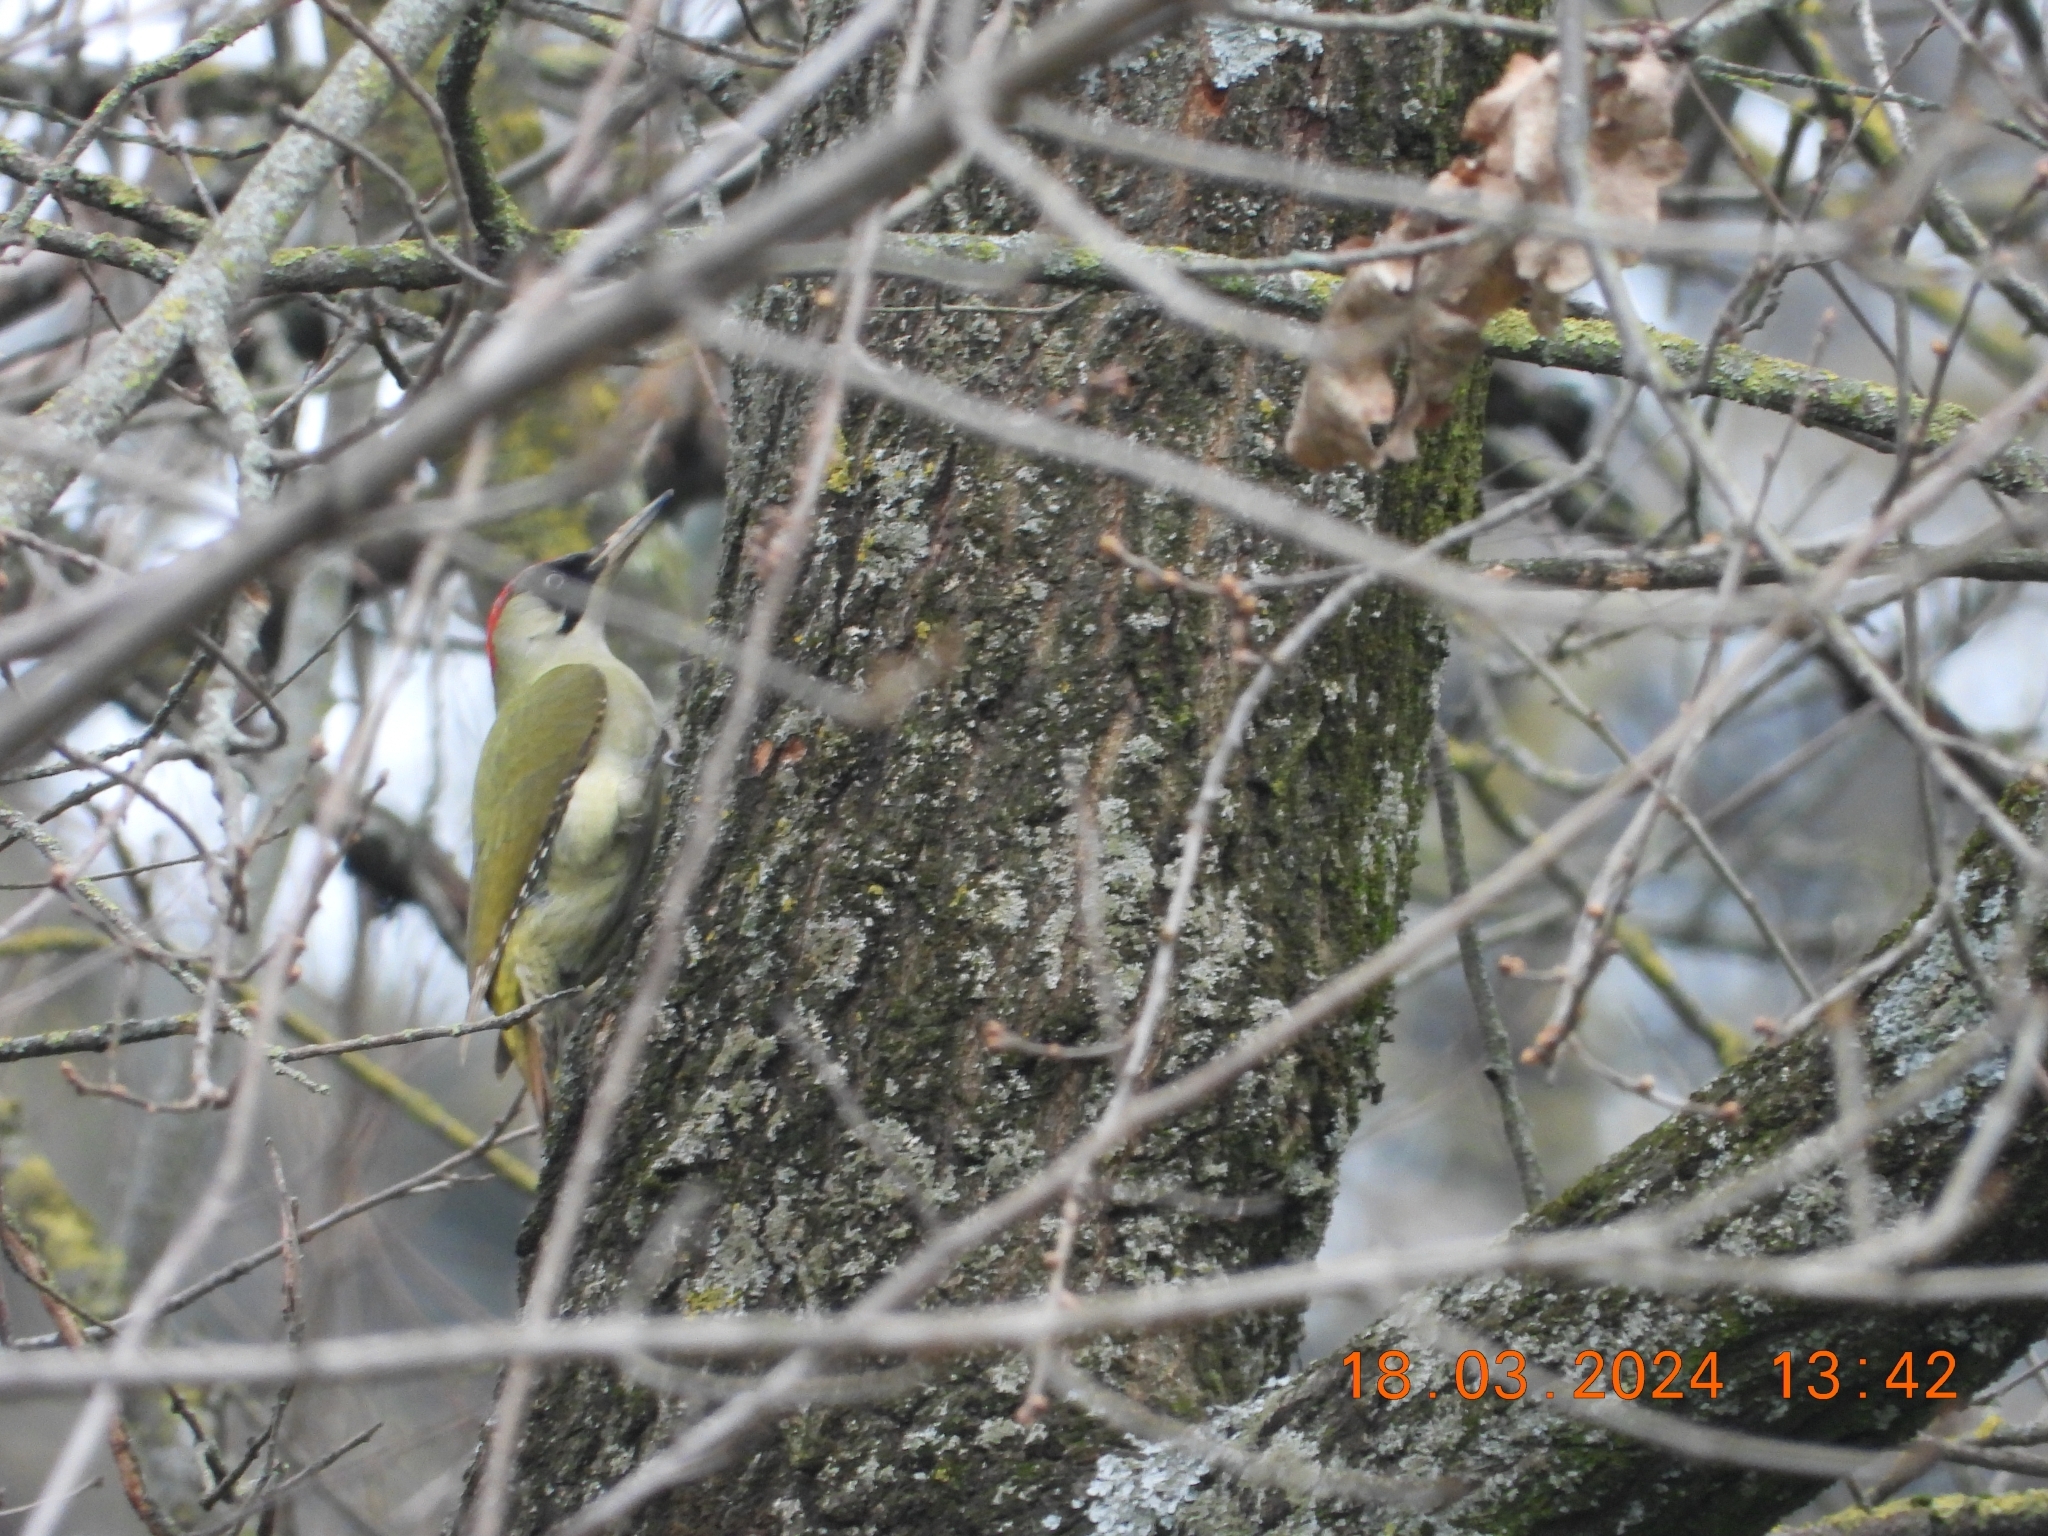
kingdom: Animalia
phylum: Chordata
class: Aves
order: Piciformes
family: Picidae
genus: Picus
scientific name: Picus viridis
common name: European green woodpecker
